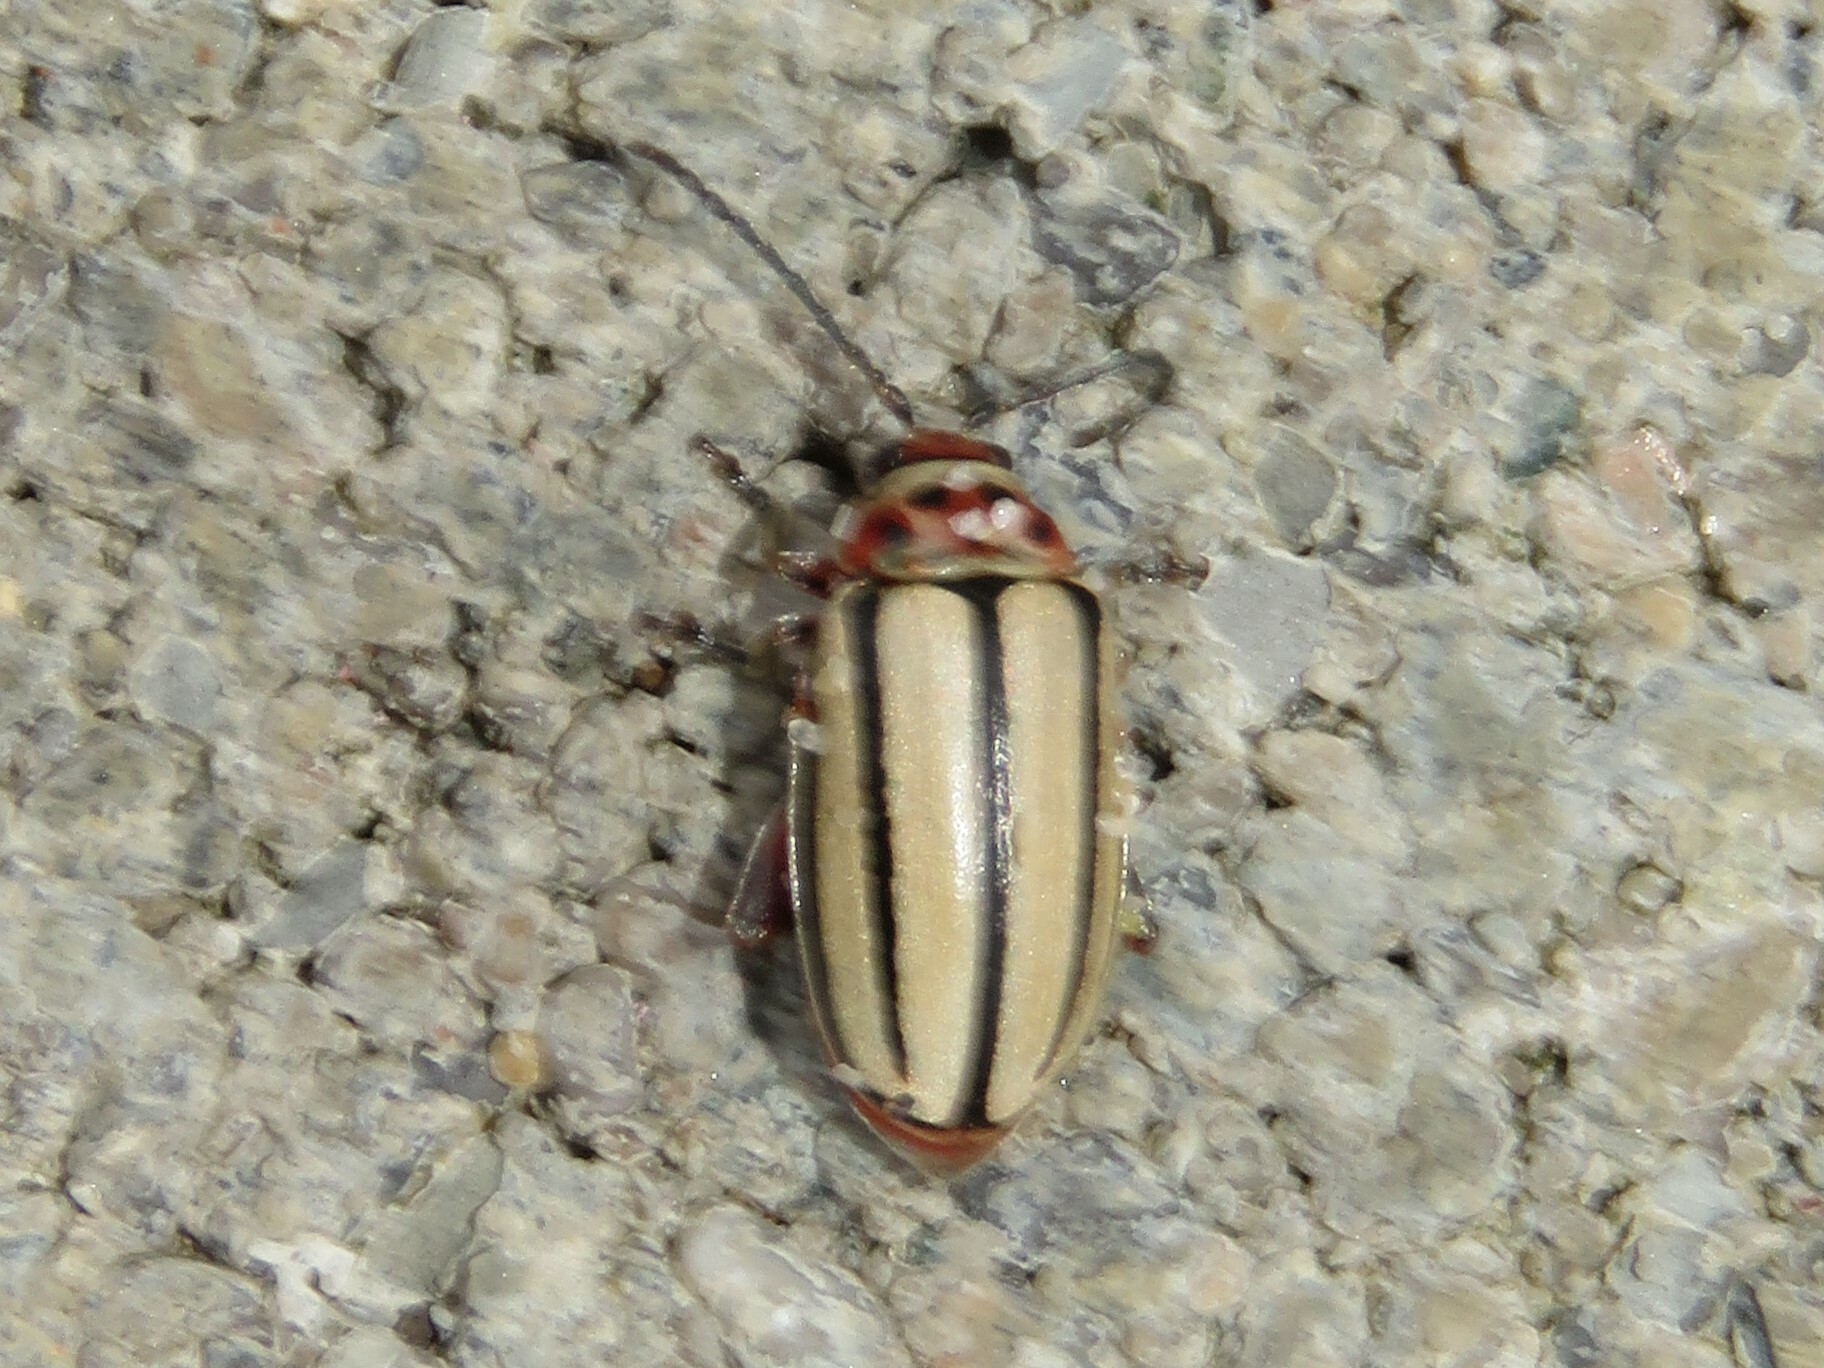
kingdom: Animalia
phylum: Arthropoda
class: Insecta
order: Coleoptera
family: Chrysomelidae
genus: Disonycha
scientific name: Disonycha alternata
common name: Striped willow leaf beetle
